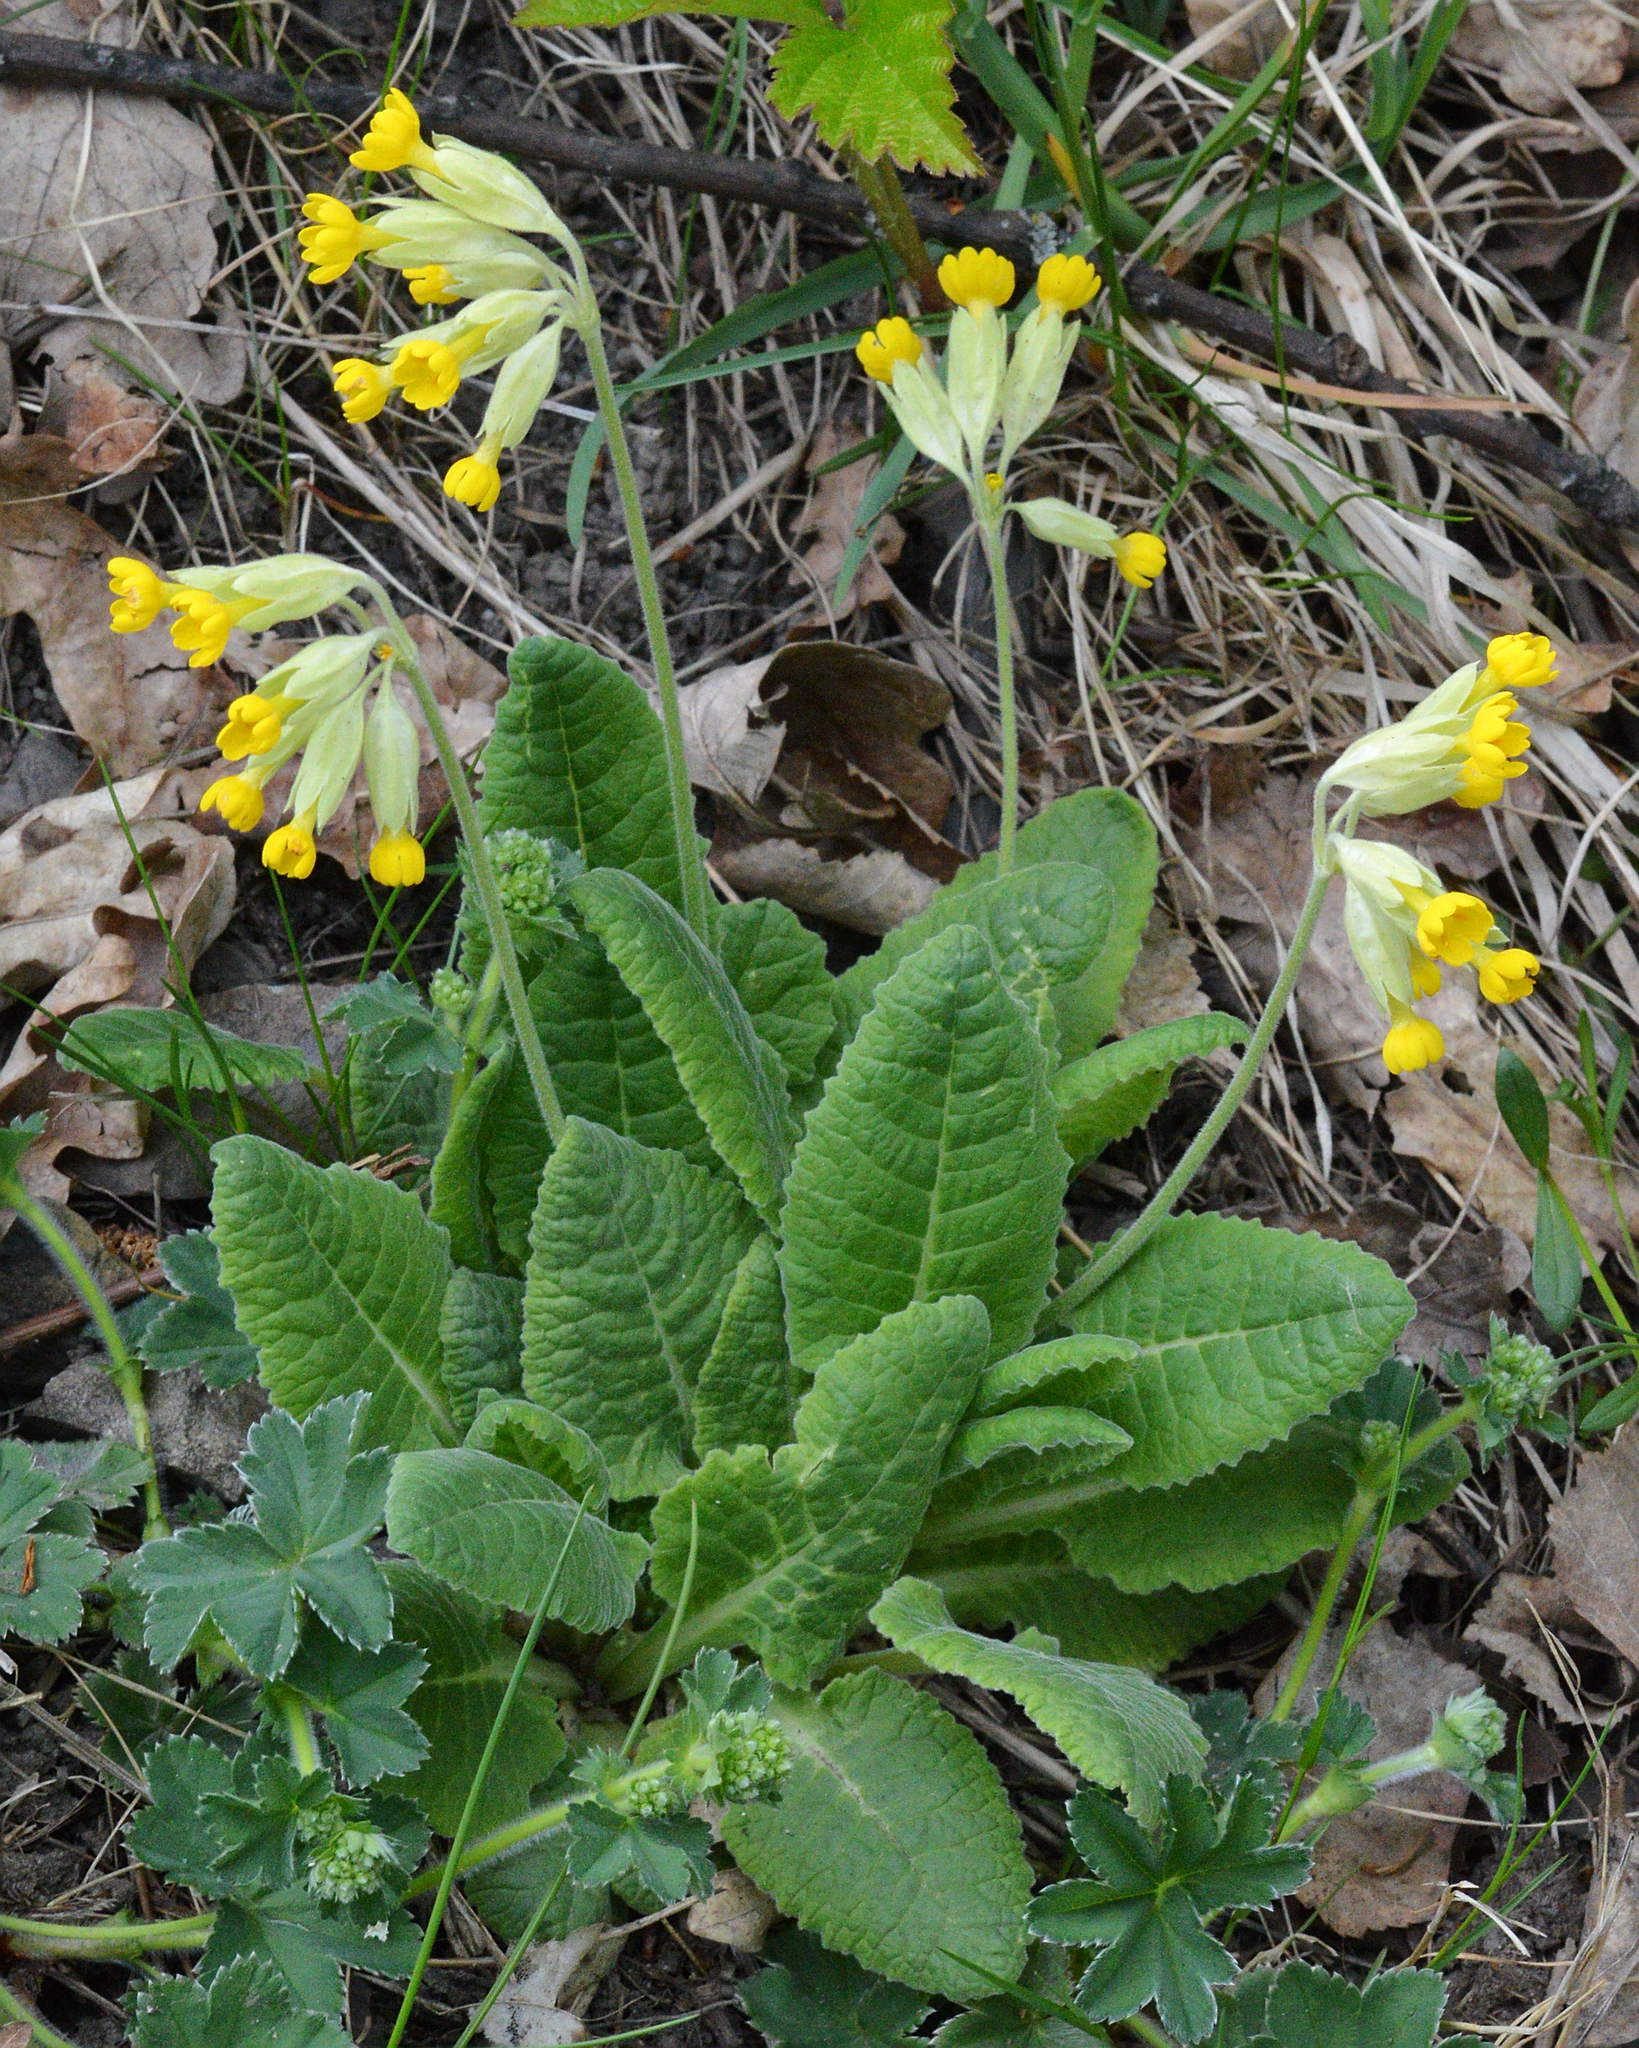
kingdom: Plantae
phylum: Tracheophyta
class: Magnoliopsida
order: Ericales
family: Primulaceae
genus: Primula
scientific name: Primula veris
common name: Cowslip
